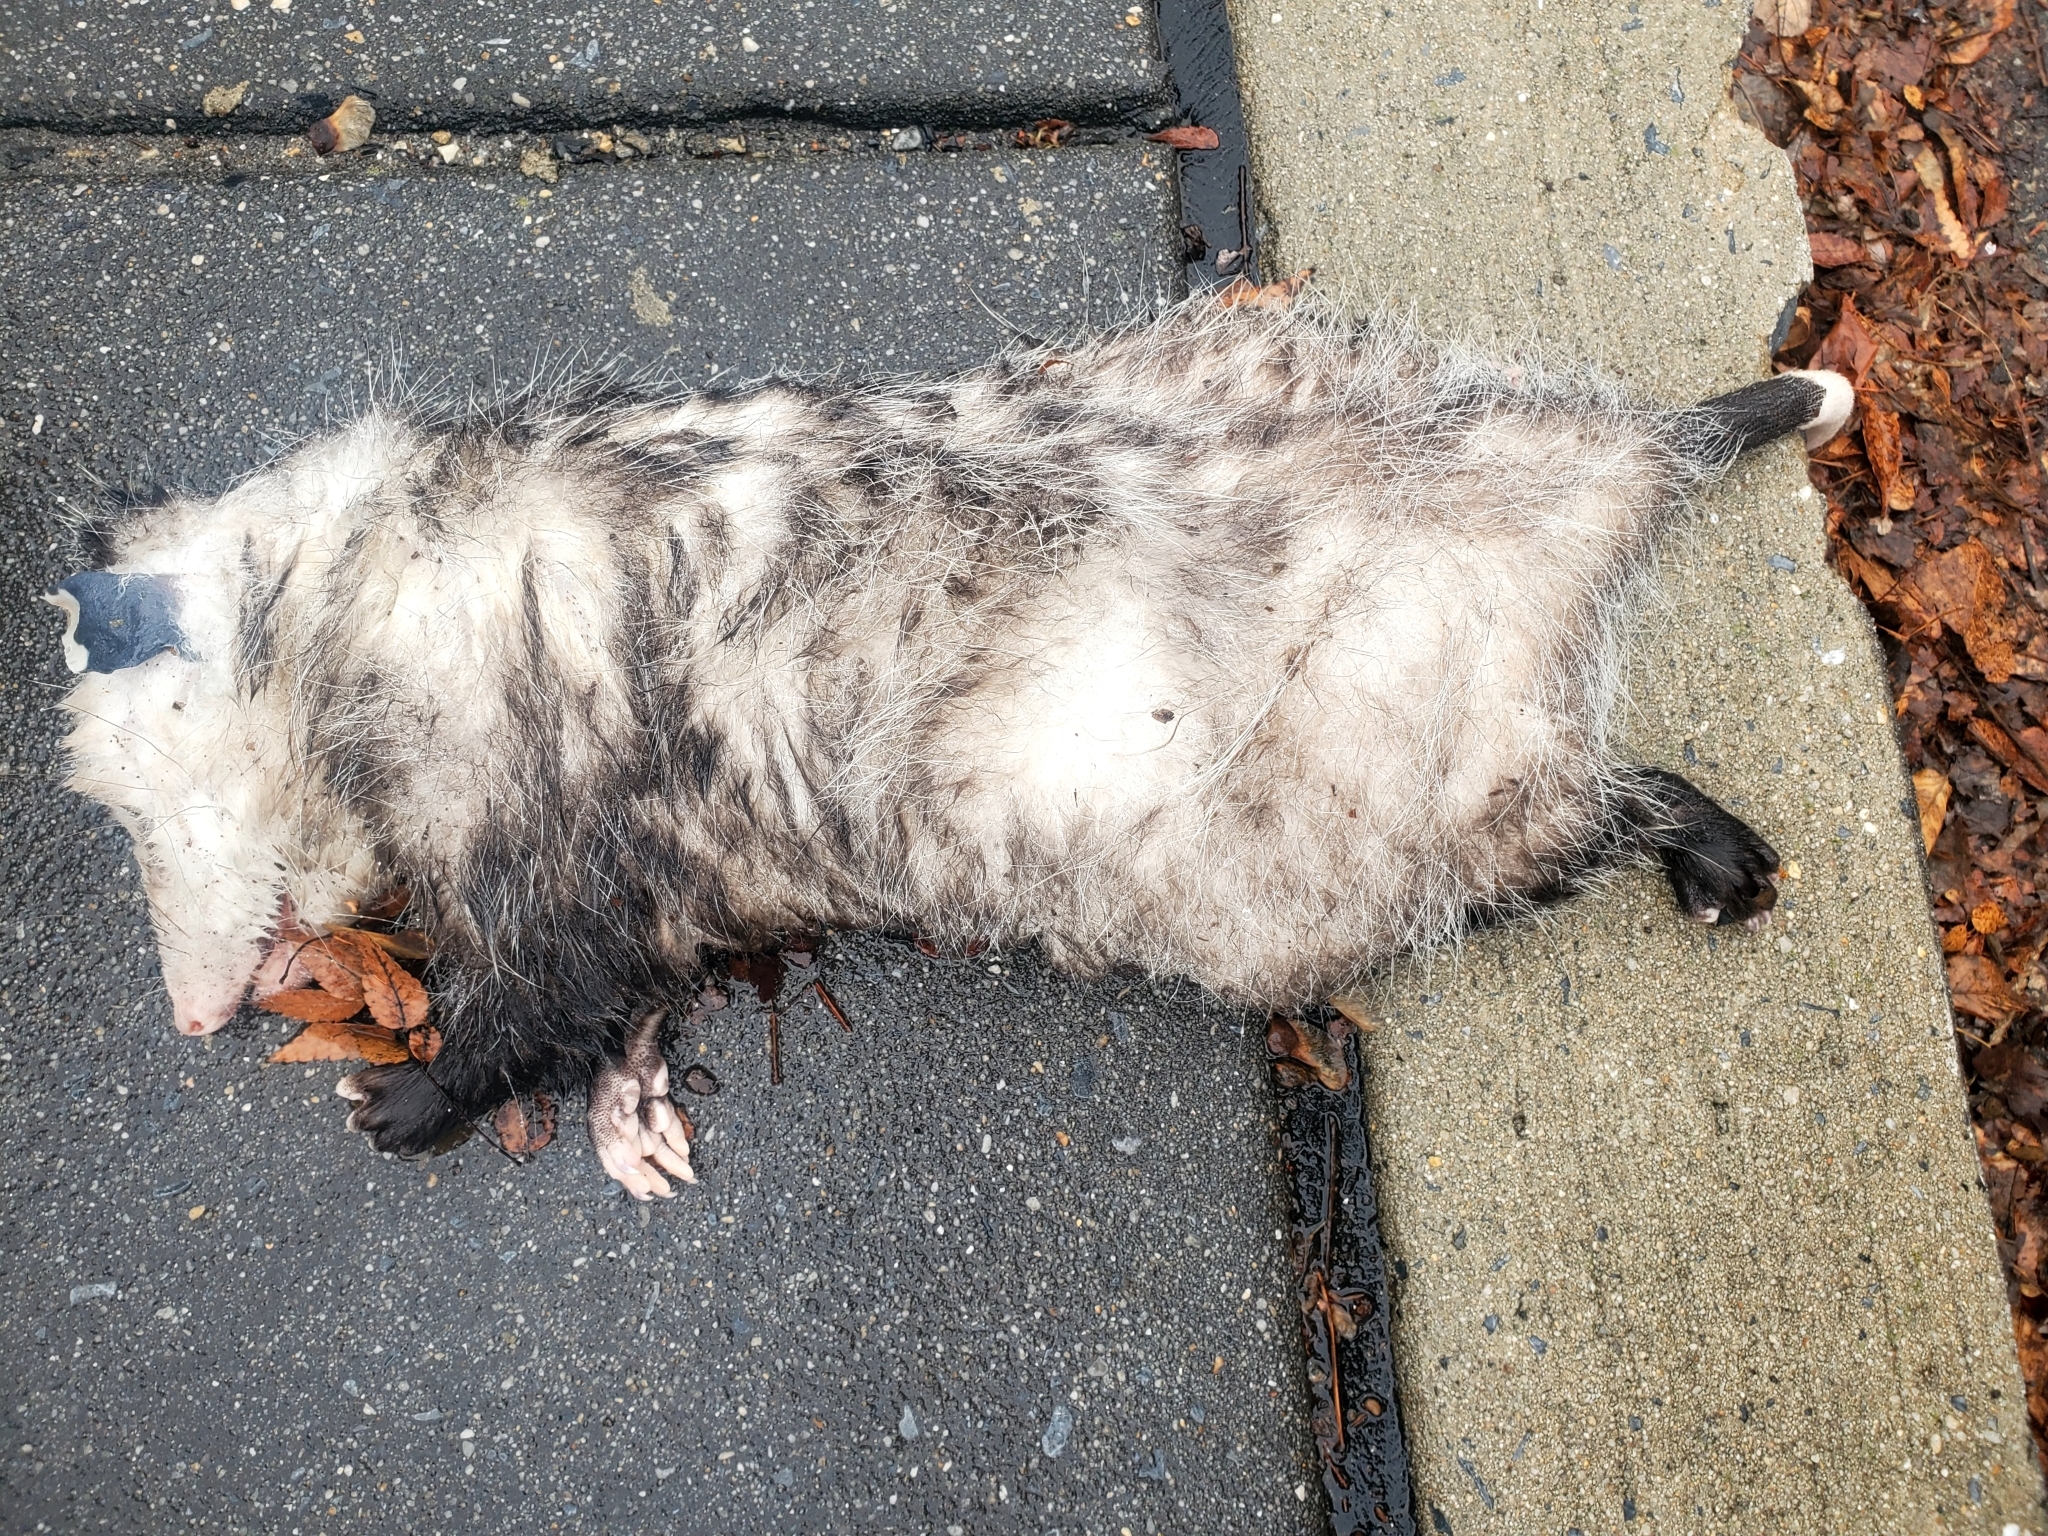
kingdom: Animalia
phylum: Chordata
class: Mammalia
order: Didelphimorphia
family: Didelphidae
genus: Didelphis
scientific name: Didelphis virginiana
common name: Virginia opossum
